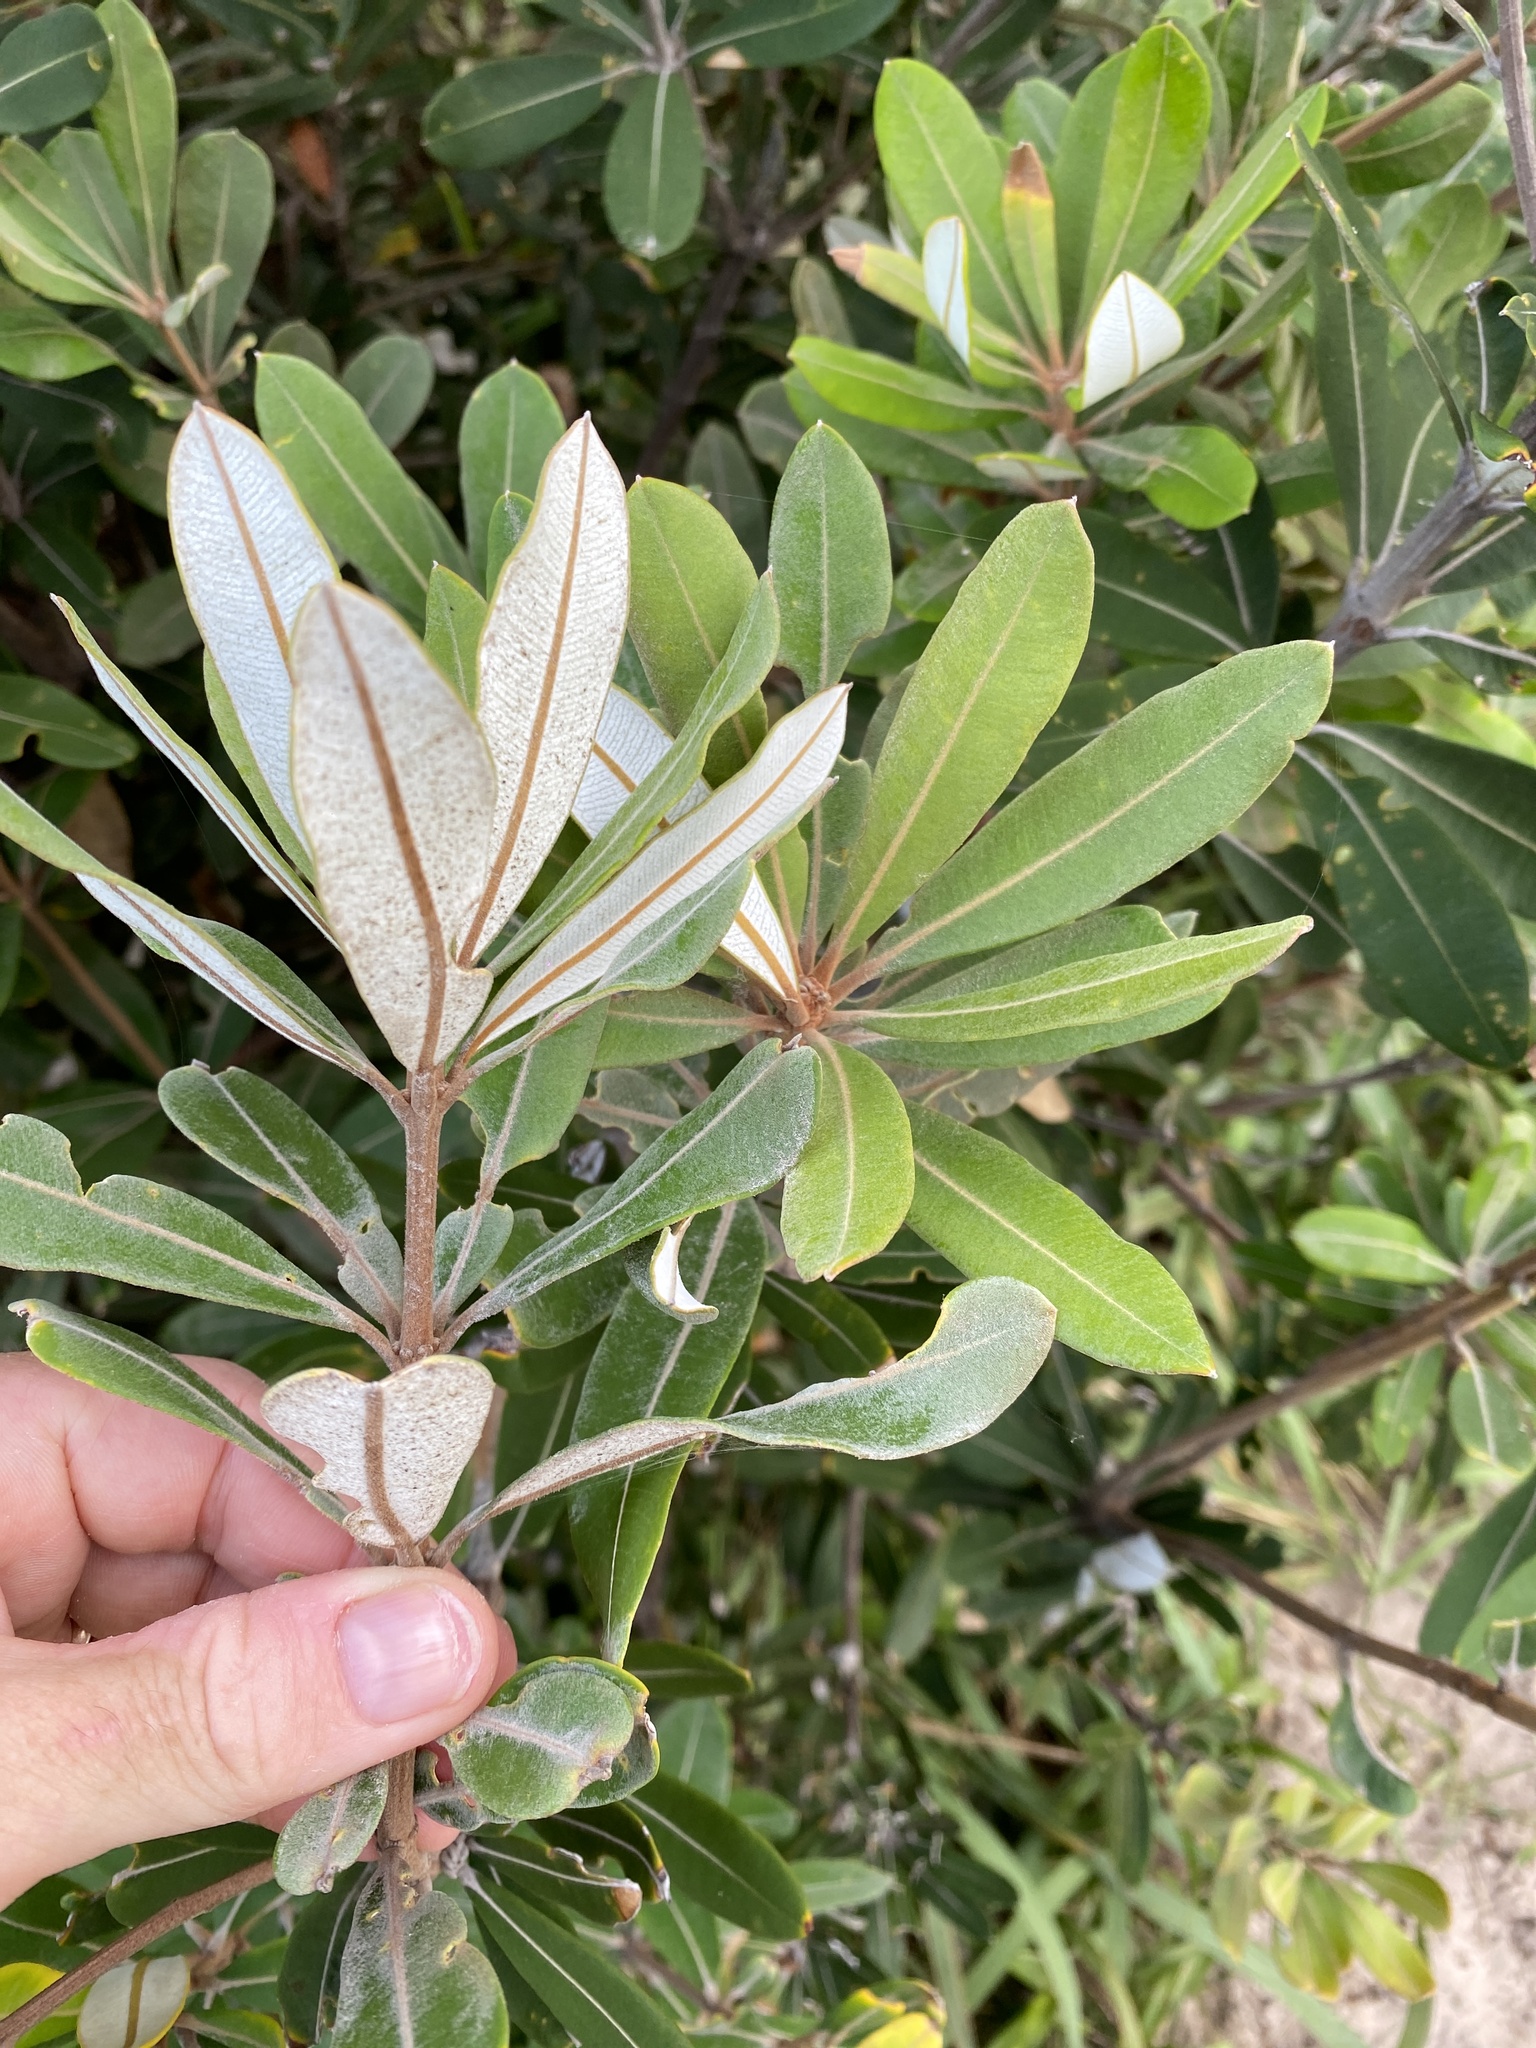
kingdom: Plantae
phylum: Tracheophyta
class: Magnoliopsida
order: Proteales
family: Proteaceae
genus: Banksia
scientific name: Banksia integrifolia
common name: White-honeysuckle
